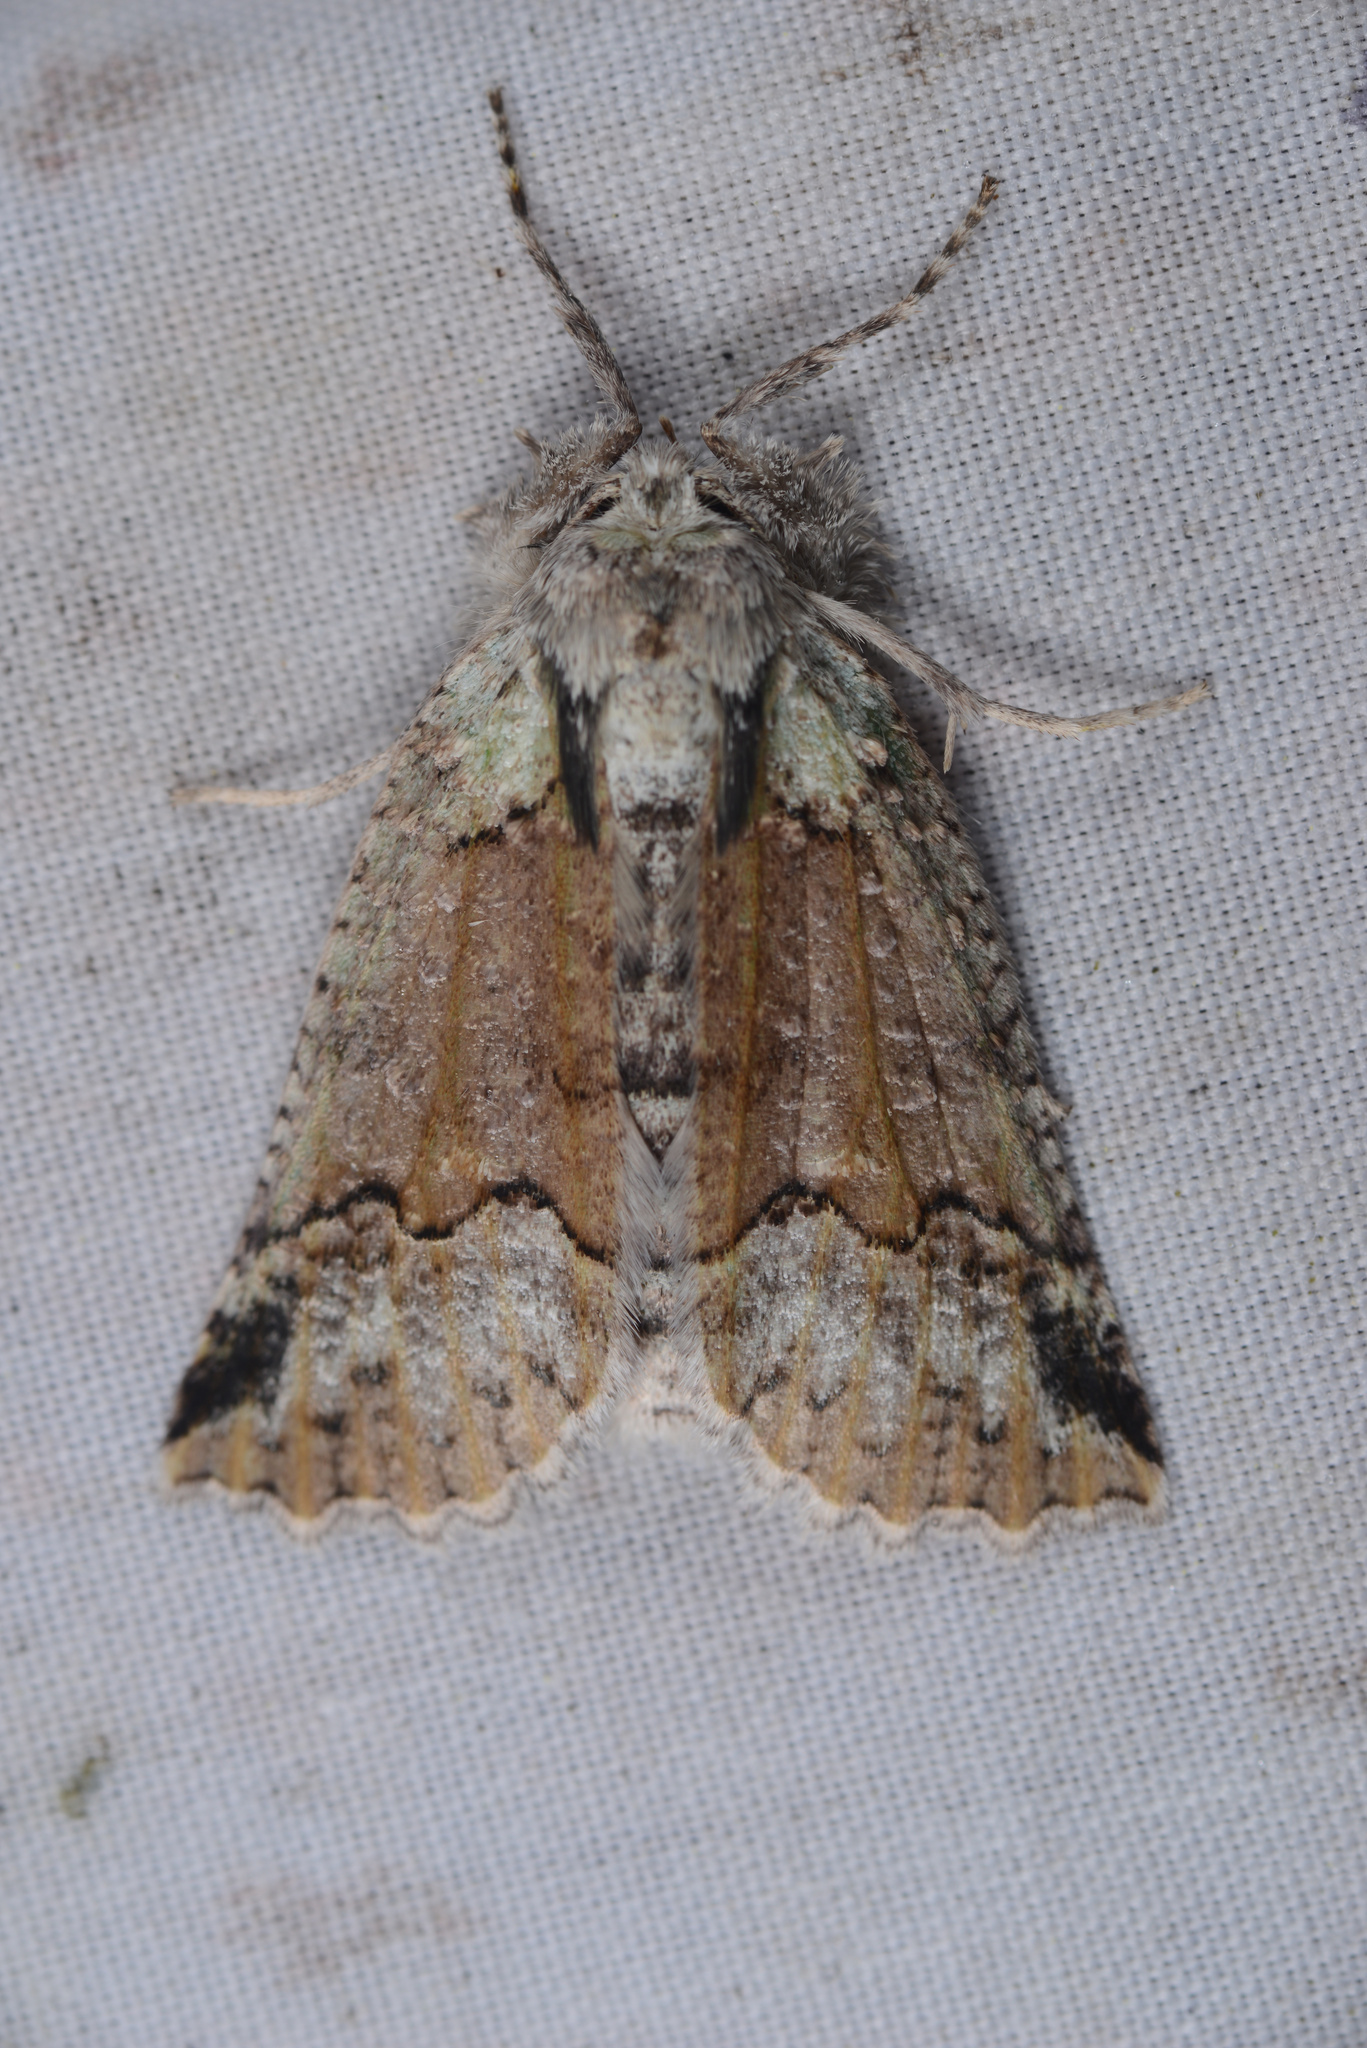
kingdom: Animalia
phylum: Arthropoda
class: Insecta
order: Lepidoptera
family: Geometridae
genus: Declana
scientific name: Declana floccosa
